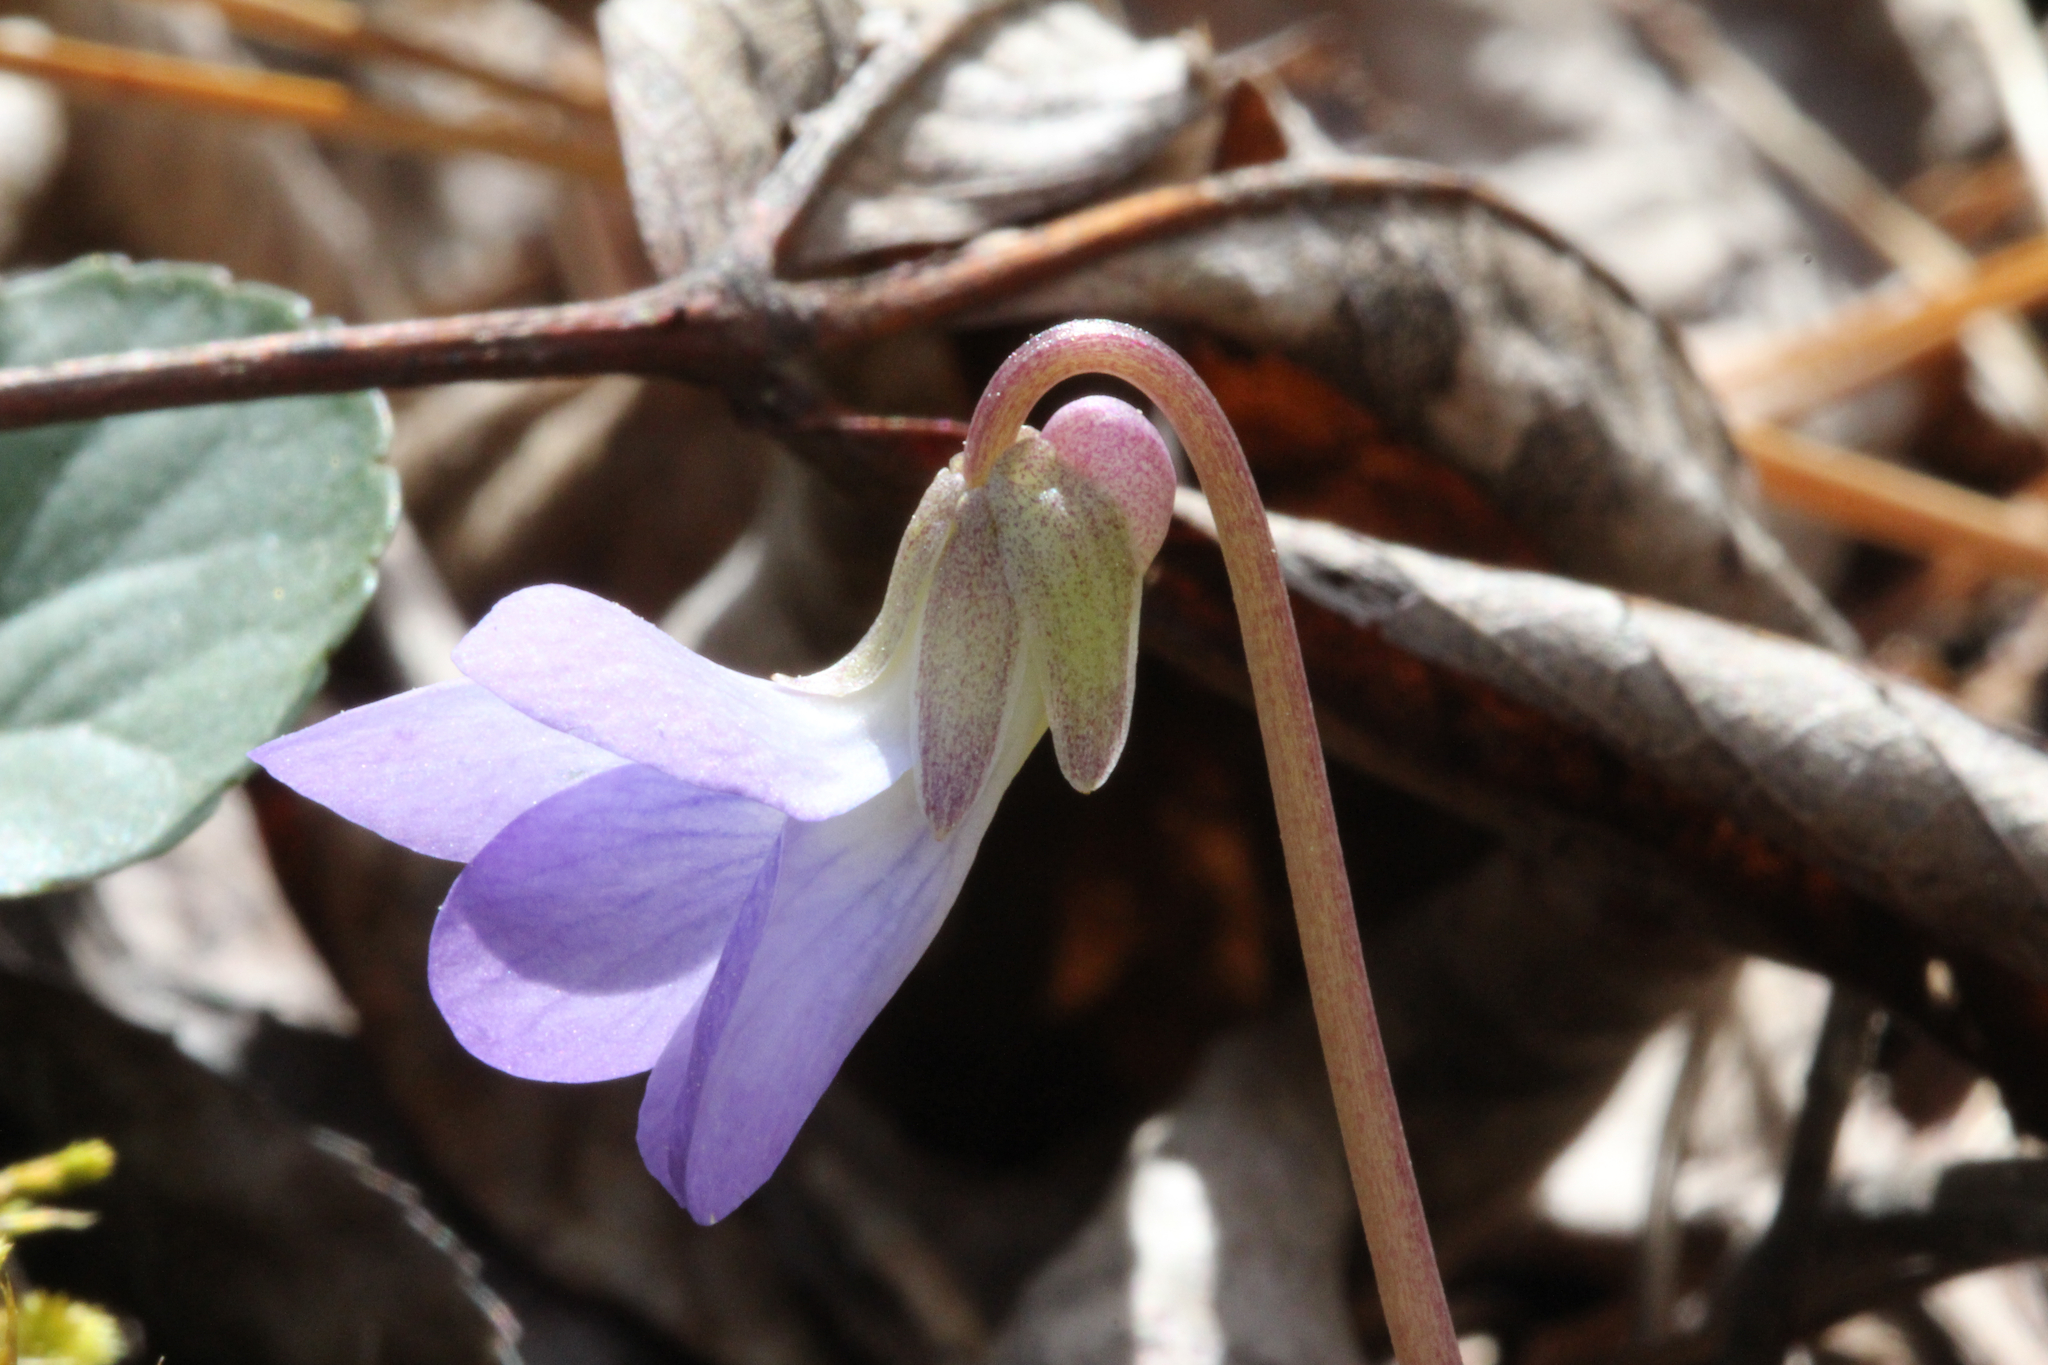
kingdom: Plantae
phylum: Tracheophyta
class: Magnoliopsida
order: Malpighiales
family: Violaceae
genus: Viola
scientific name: Viola walteri
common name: Prostrate southern violet
